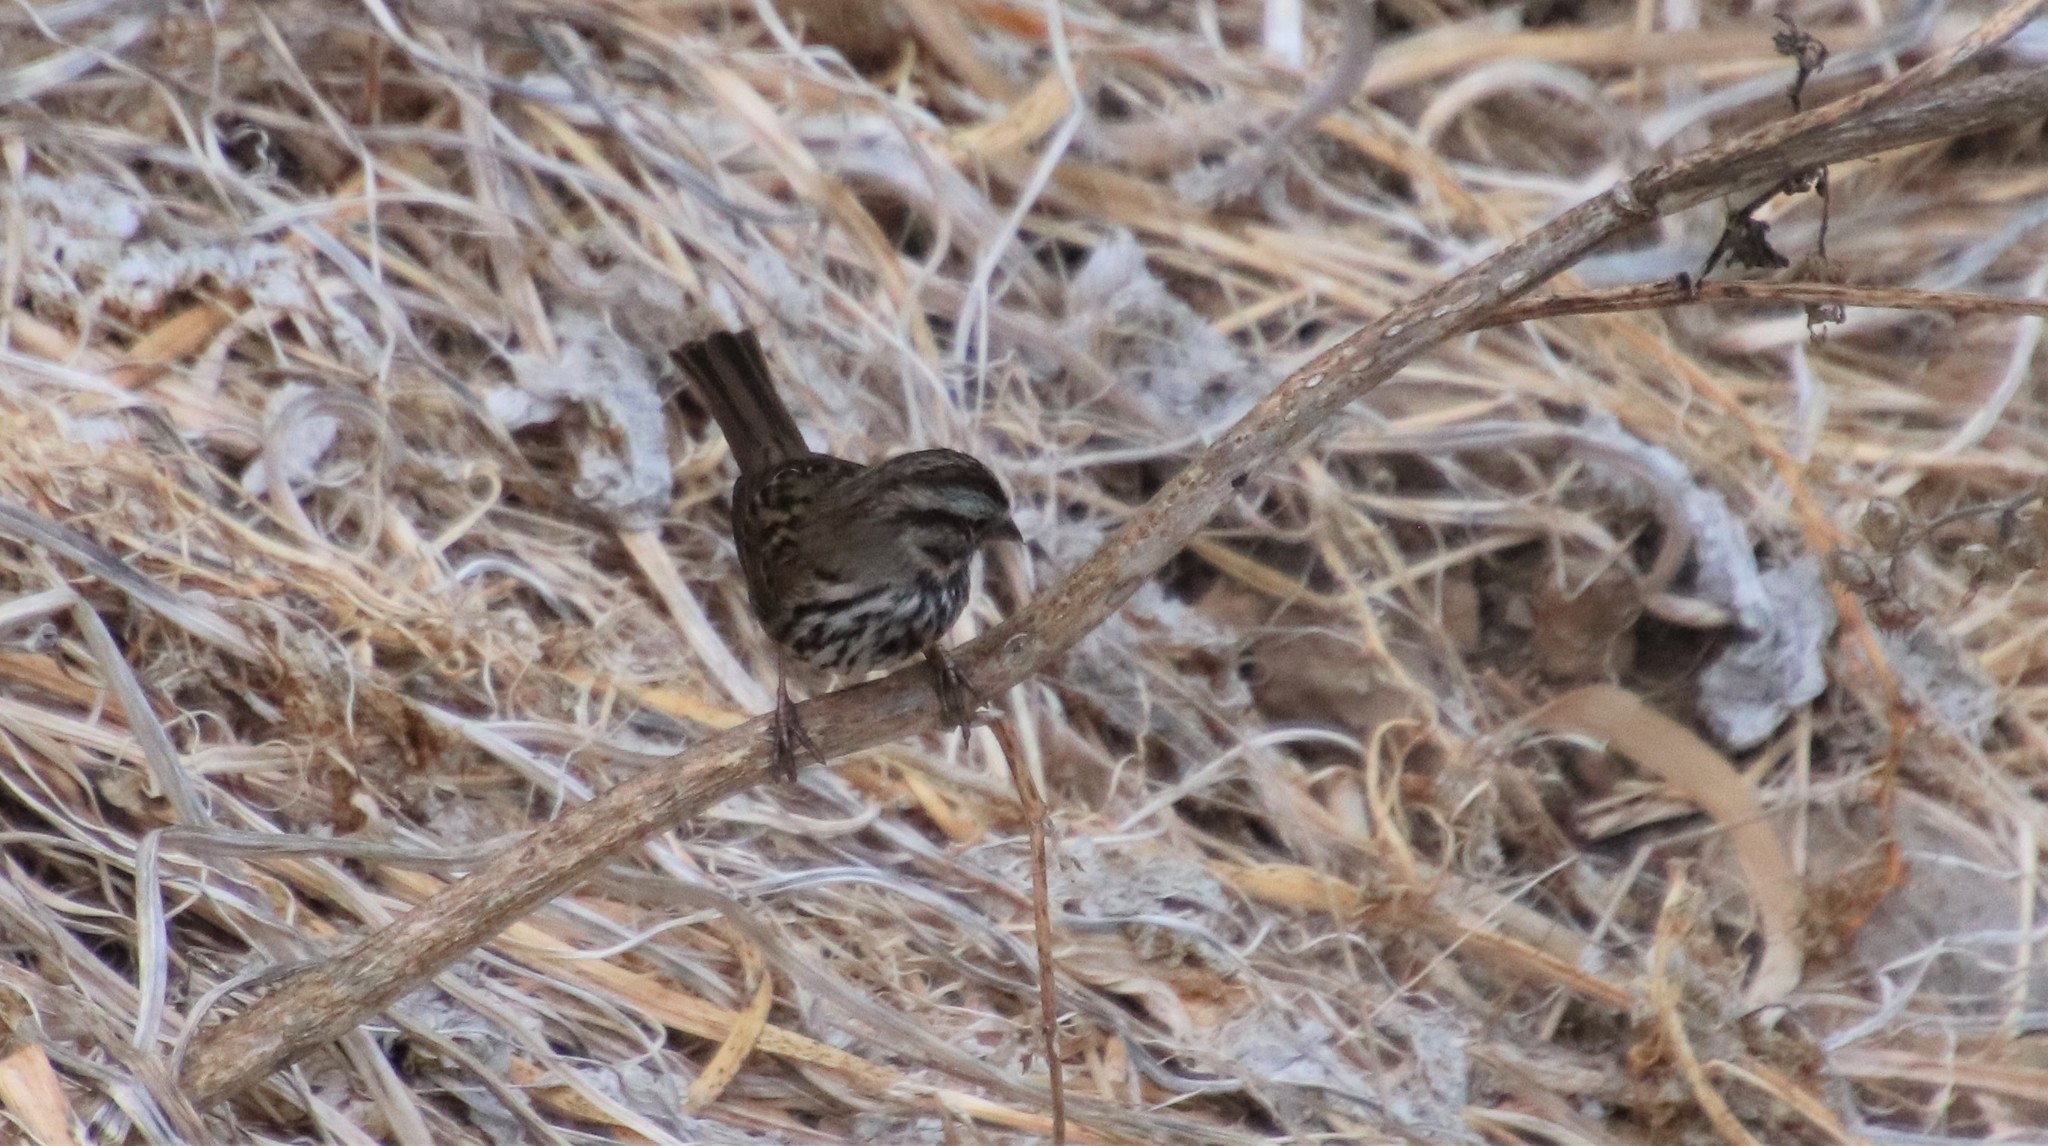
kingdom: Animalia
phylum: Chordata
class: Aves
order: Passeriformes
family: Passerellidae
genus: Melospiza
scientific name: Melospiza melodia
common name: Song sparrow
